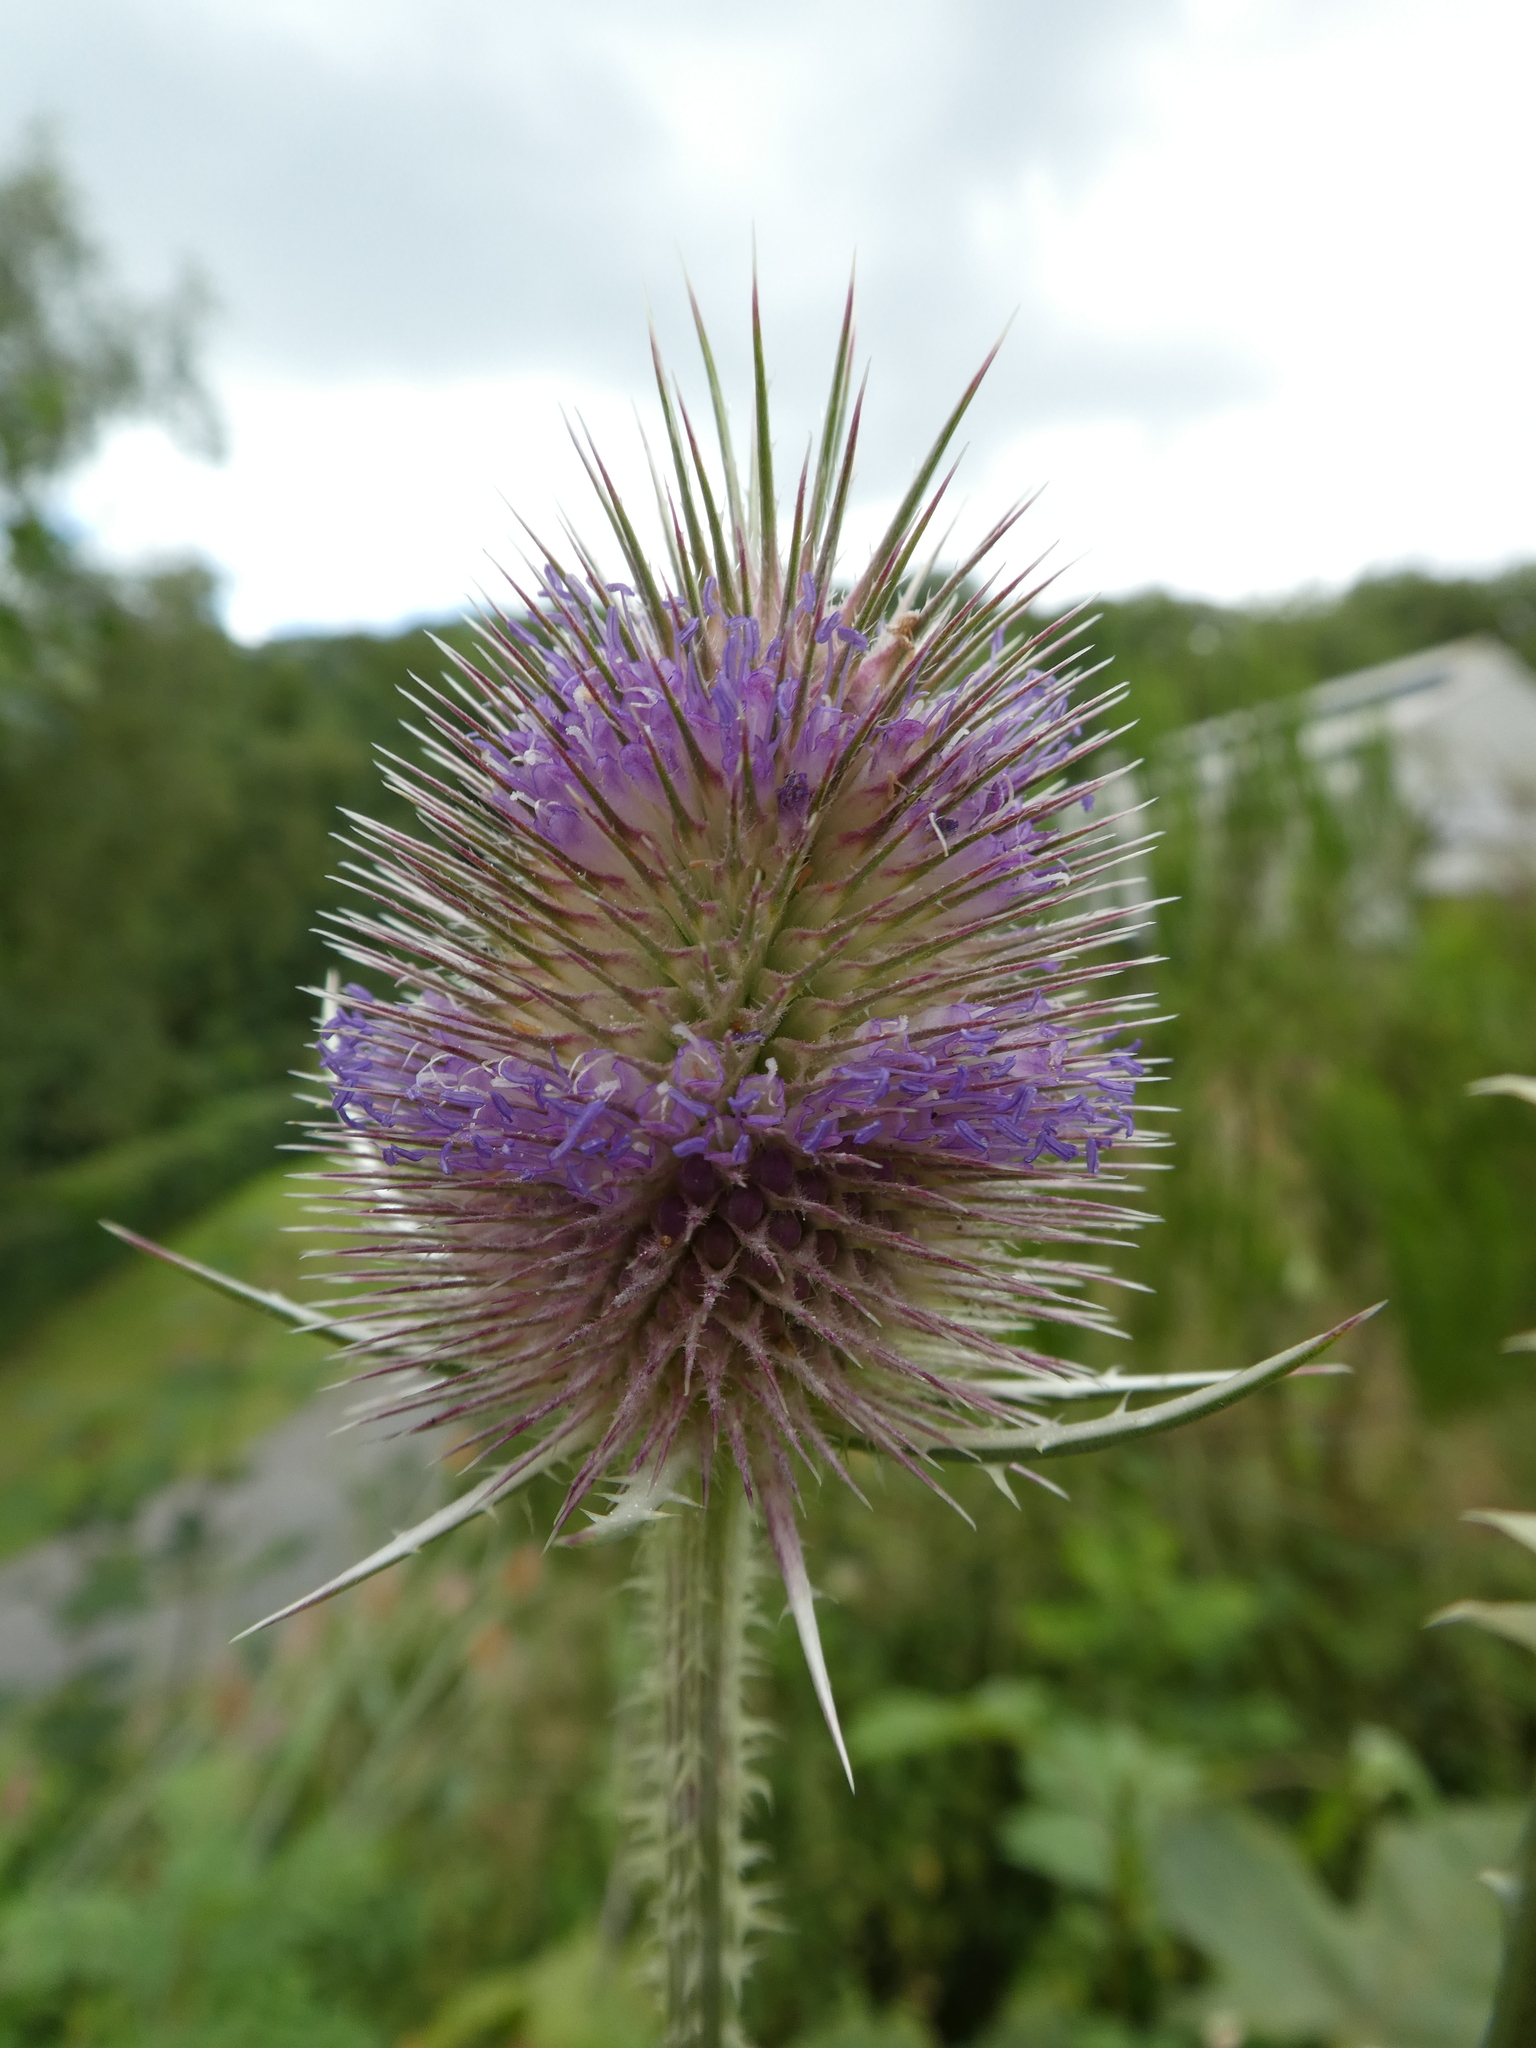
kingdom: Plantae
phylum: Tracheophyta
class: Magnoliopsida
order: Dipsacales
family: Caprifoliaceae
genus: Dipsacus
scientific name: Dipsacus fullonum
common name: Teasel
